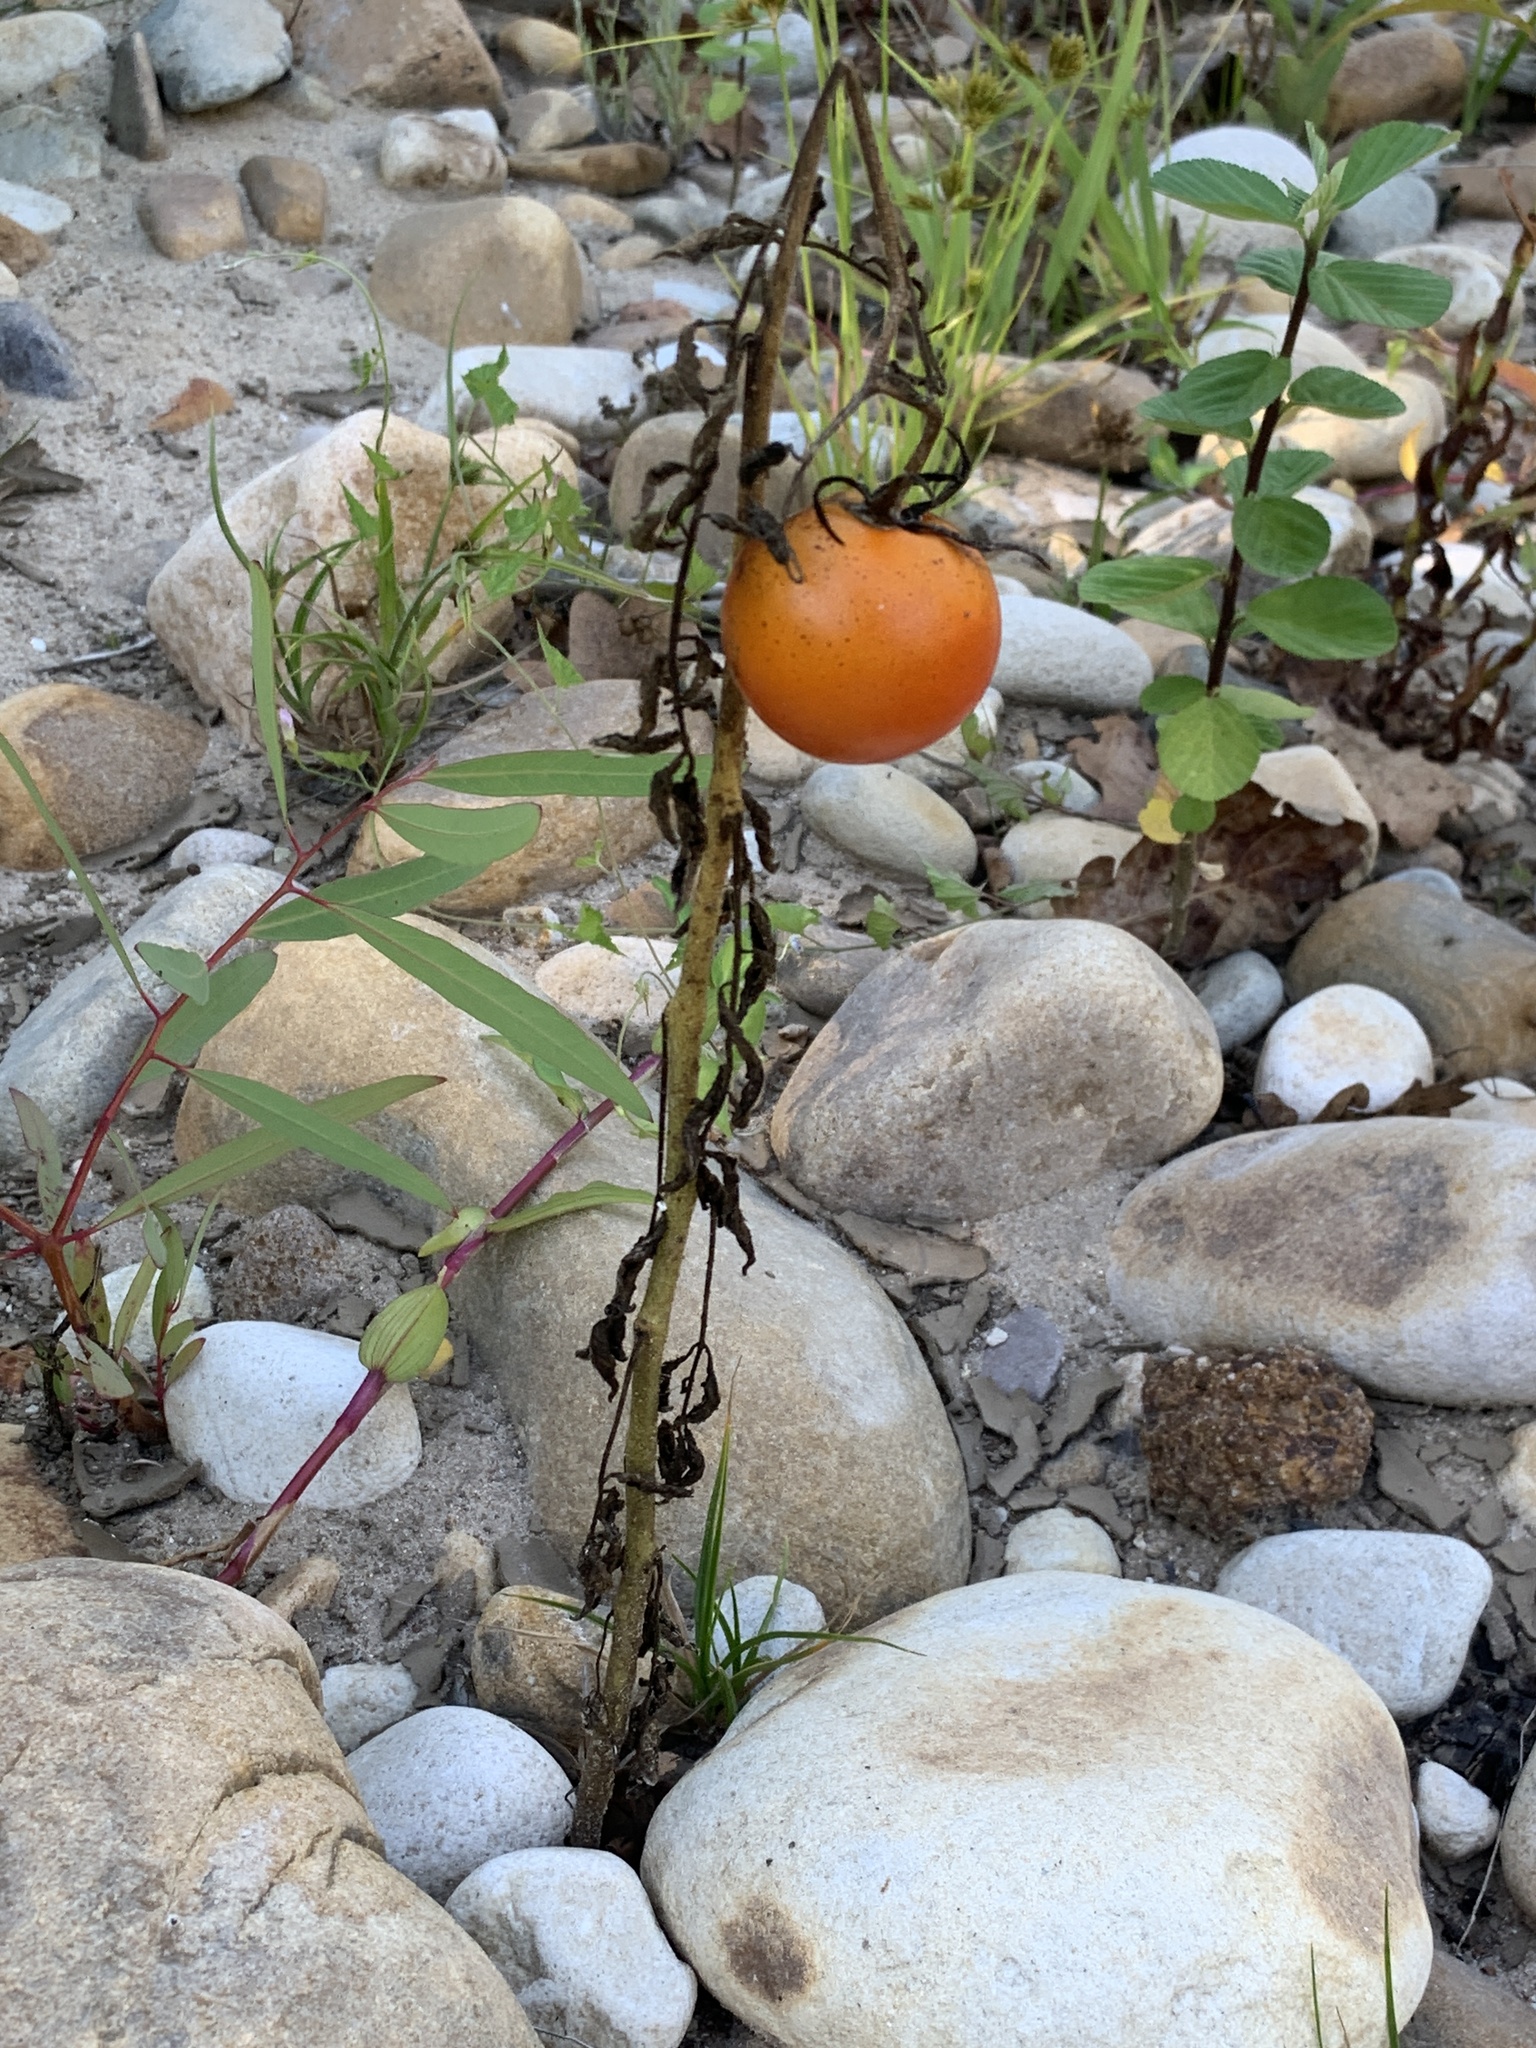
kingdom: Plantae
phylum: Tracheophyta
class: Magnoliopsida
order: Solanales
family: Solanaceae
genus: Solanum
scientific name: Solanum lycopersicum
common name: Garden tomato
